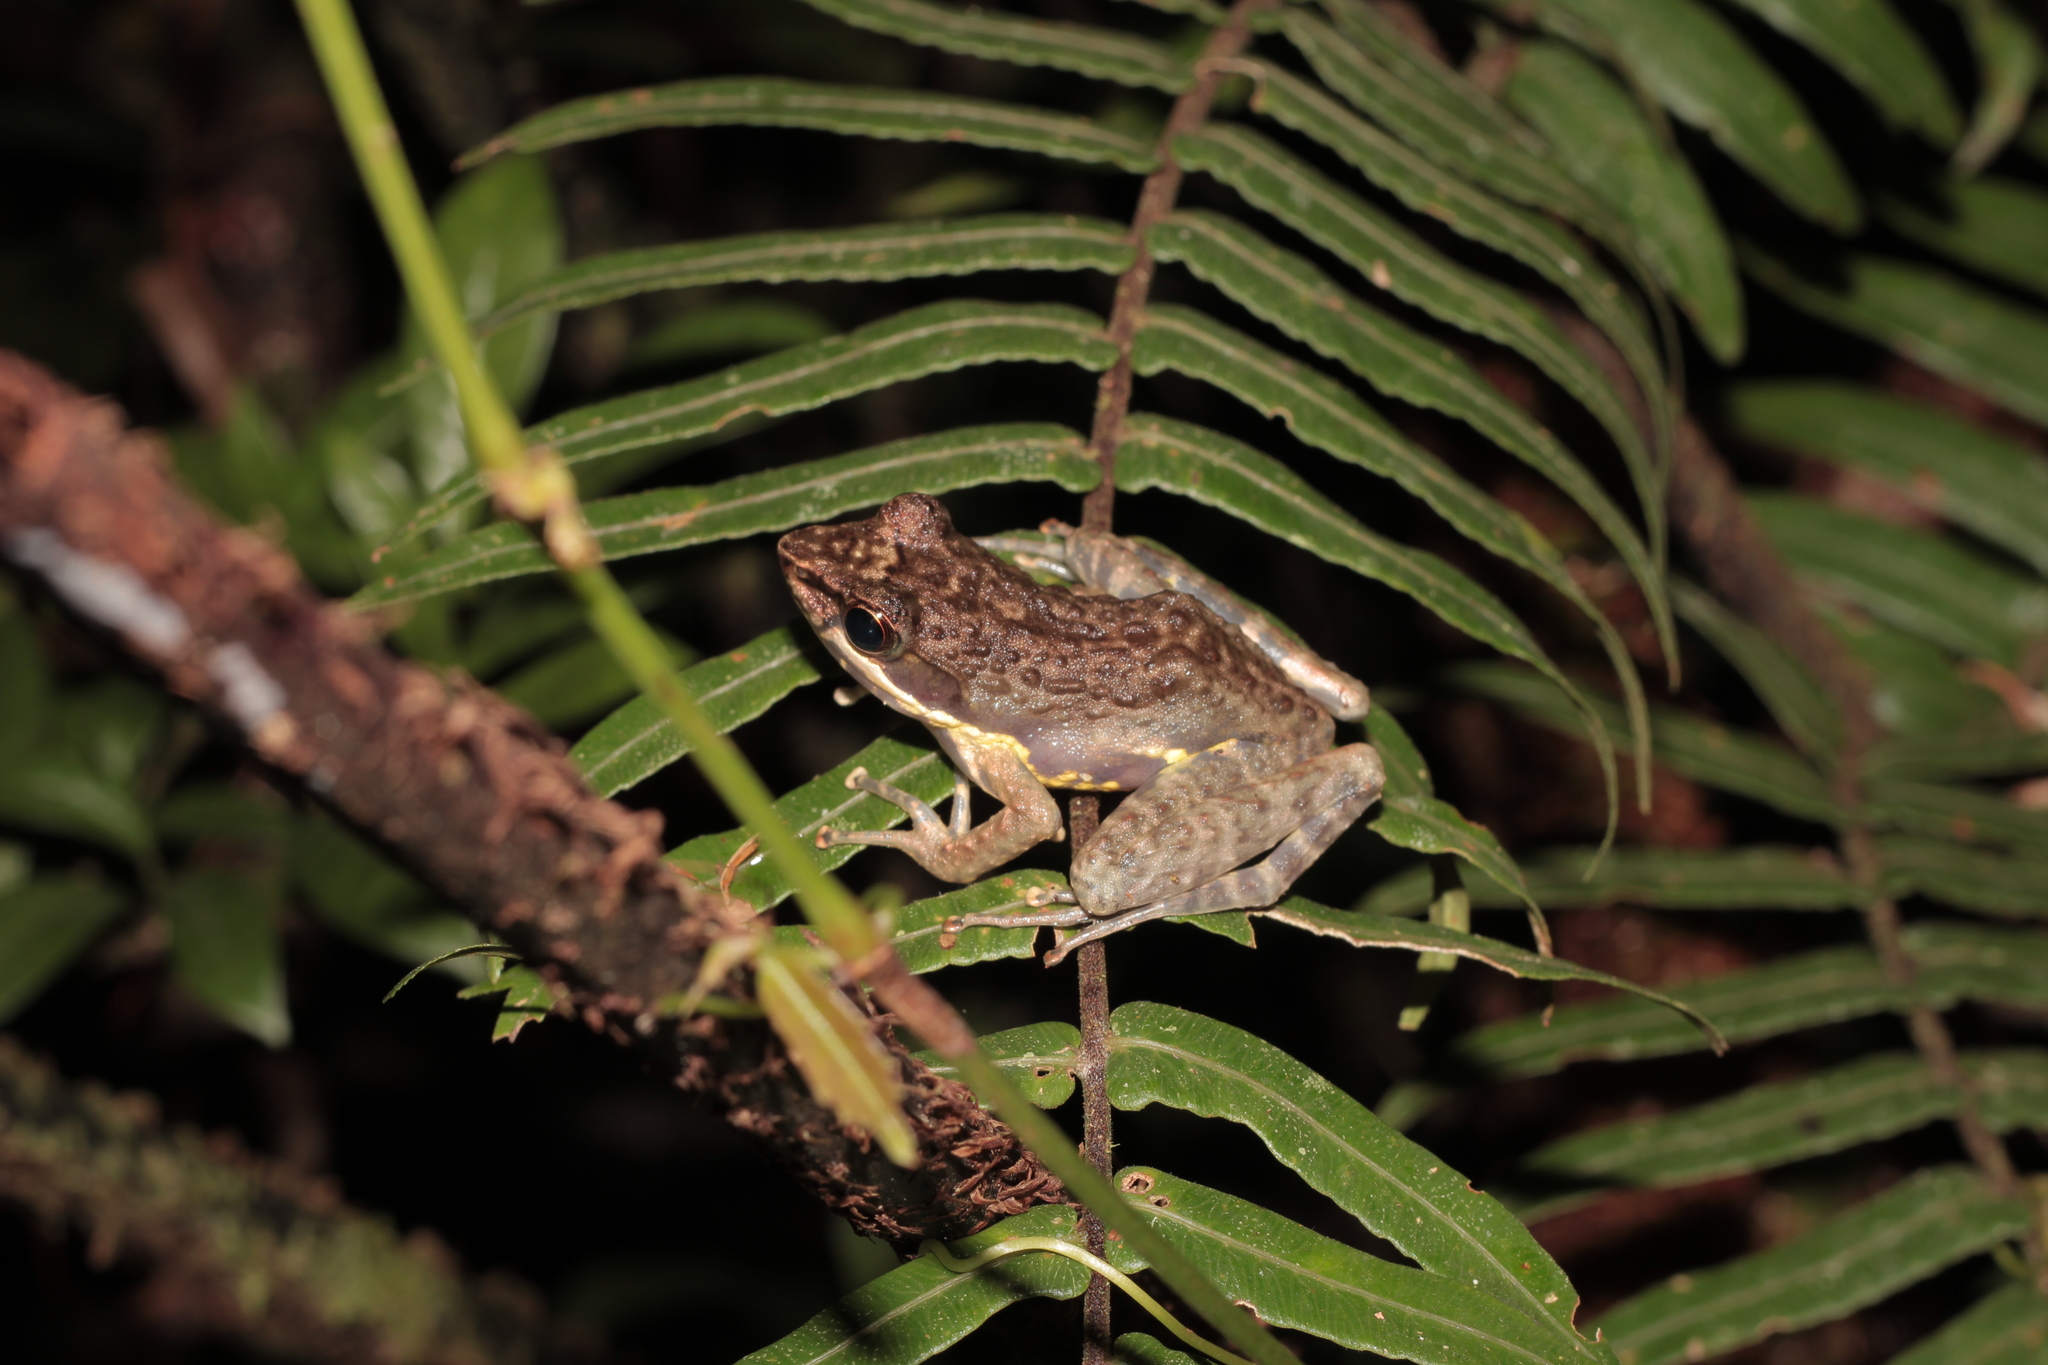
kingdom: Animalia
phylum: Chordata
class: Amphibia
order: Anura
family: Mantellidae
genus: Mantidactylus
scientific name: Mantidactylus mocquardi
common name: Mocquard's madagascar frog
